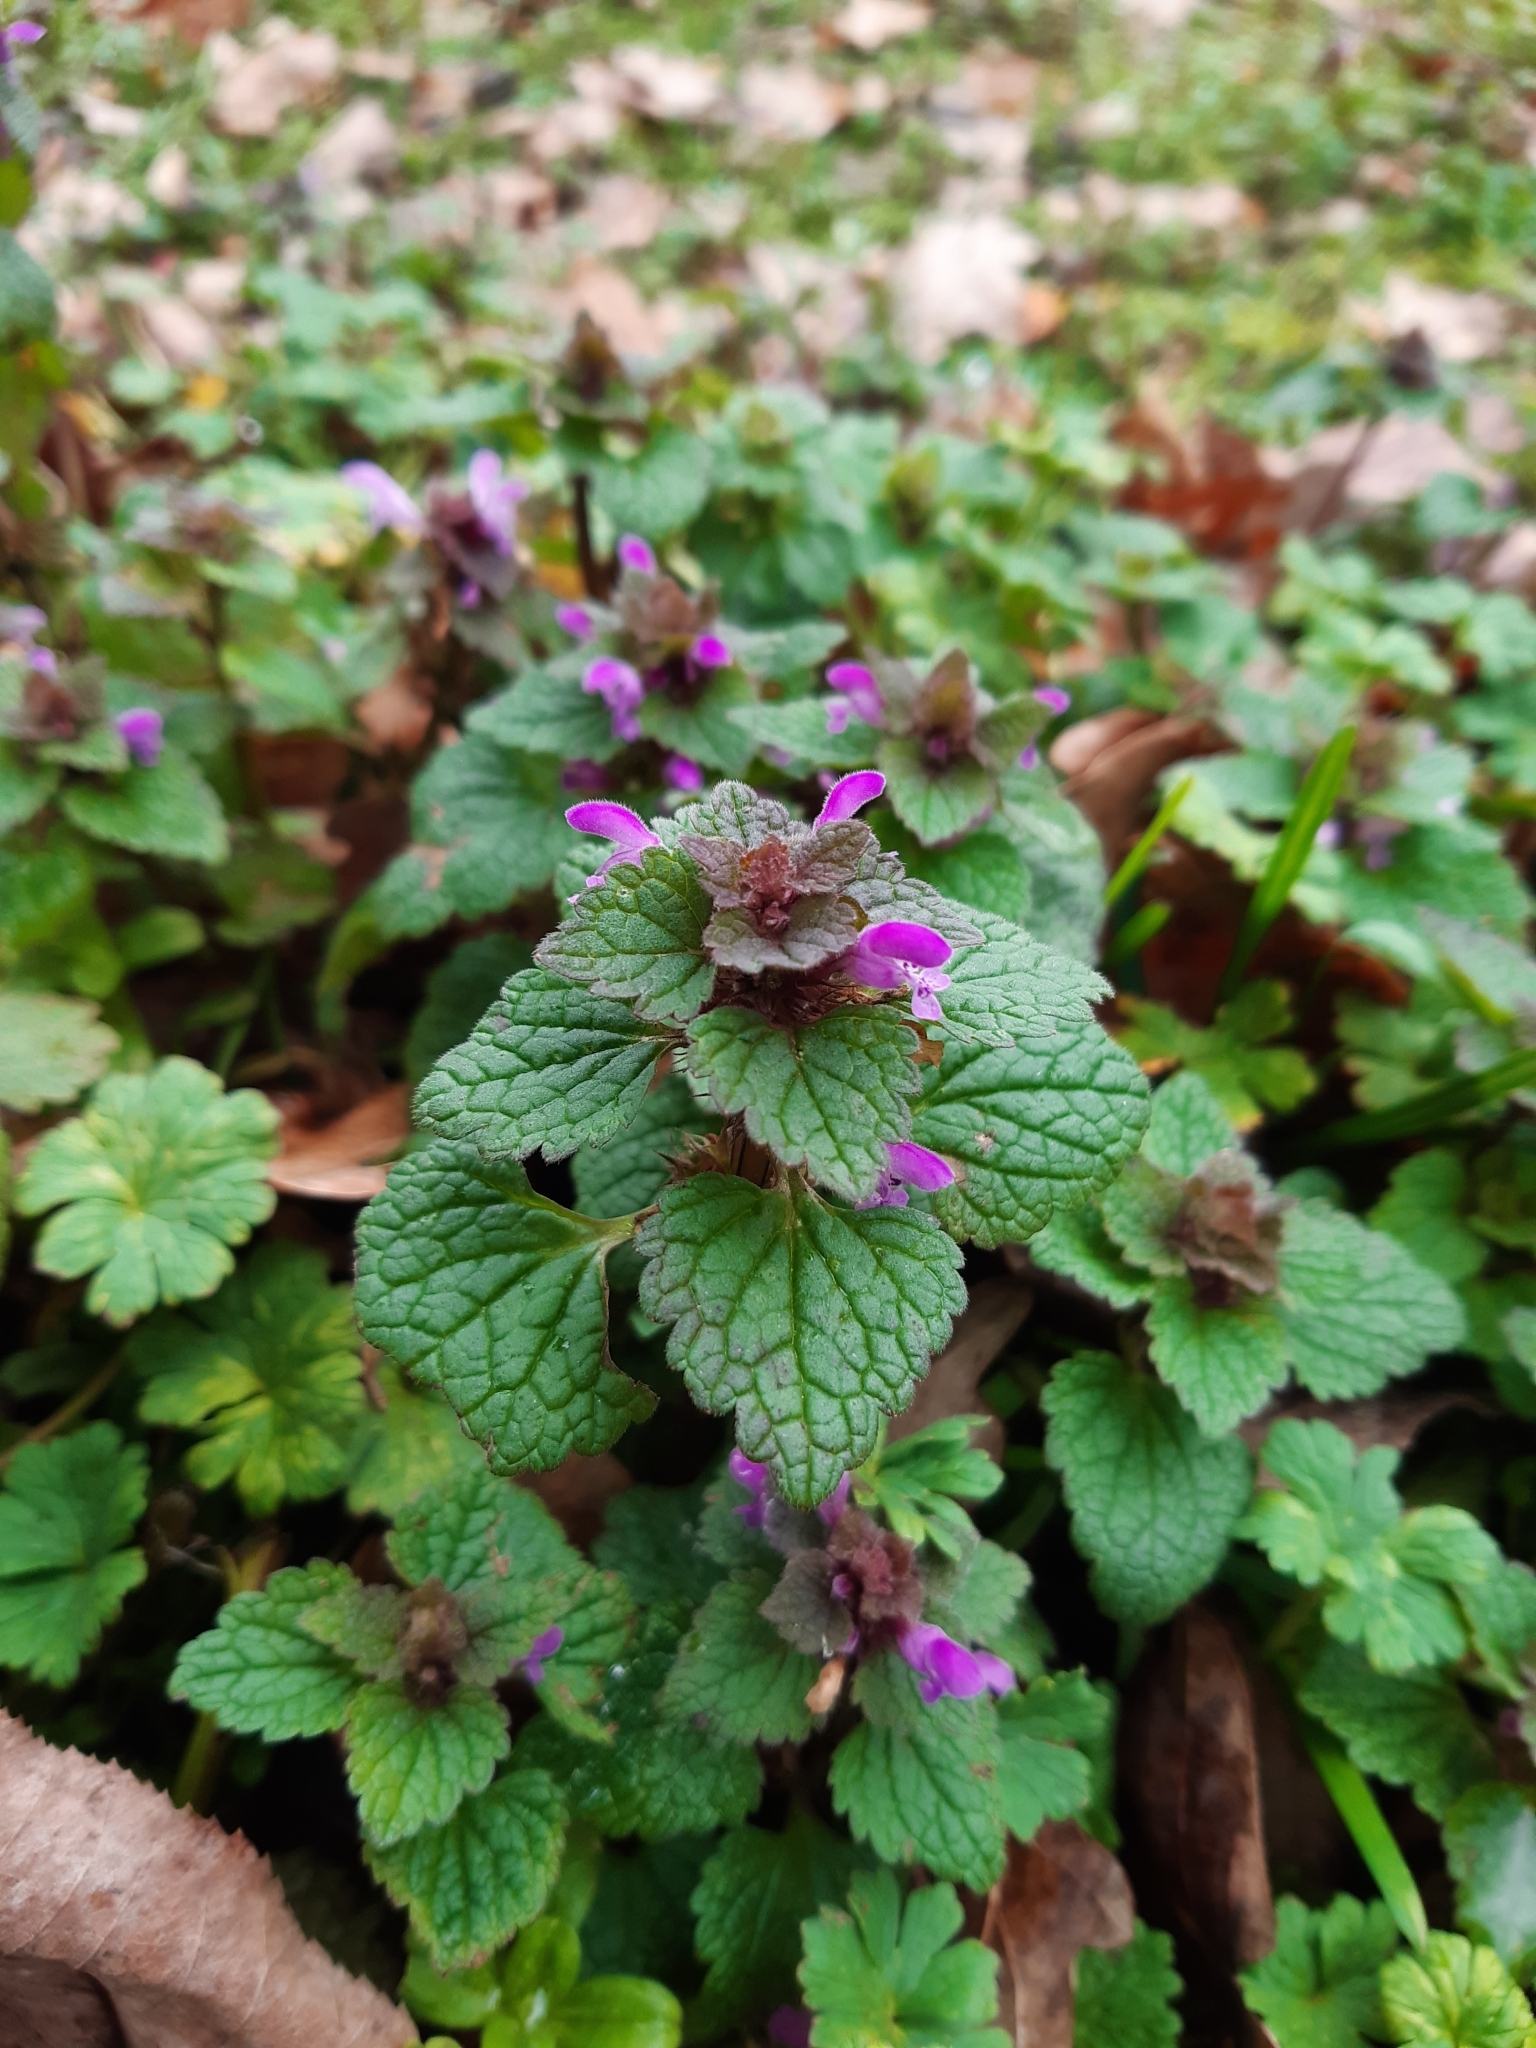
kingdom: Plantae
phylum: Tracheophyta
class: Magnoliopsida
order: Lamiales
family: Lamiaceae
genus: Lamium
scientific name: Lamium purpureum
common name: Red dead-nettle
